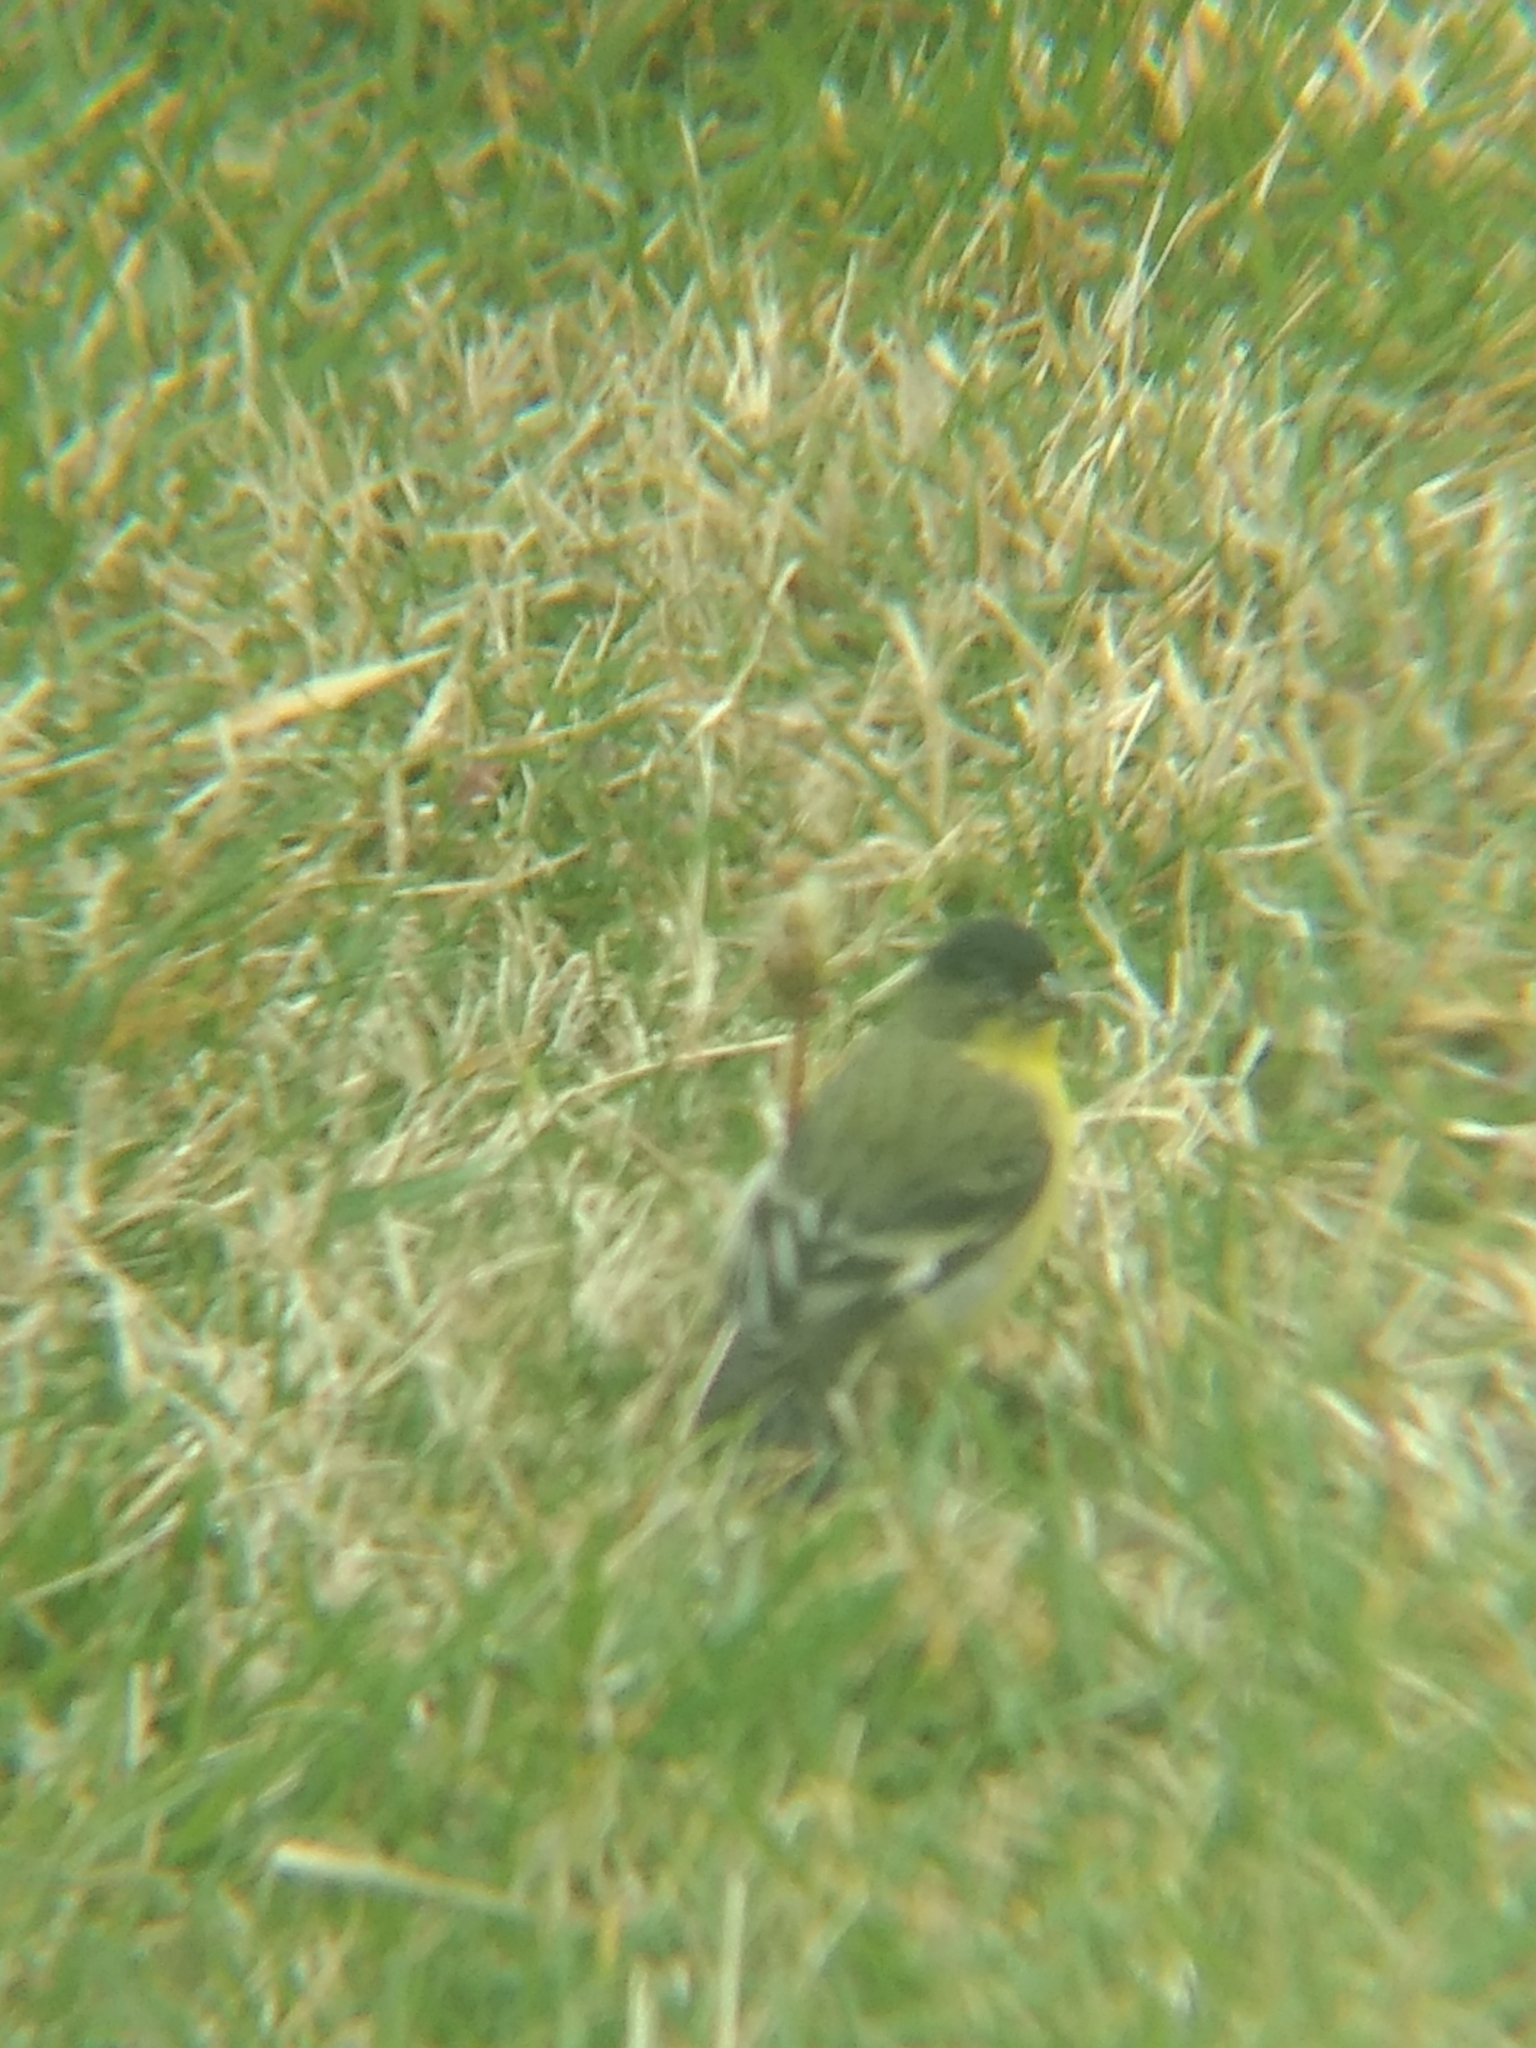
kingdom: Animalia
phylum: Chordata
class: Aves
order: Passeriformes
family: Fringillidae
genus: Spinus
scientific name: Spinus psaltria
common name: Lesser goldfinch
